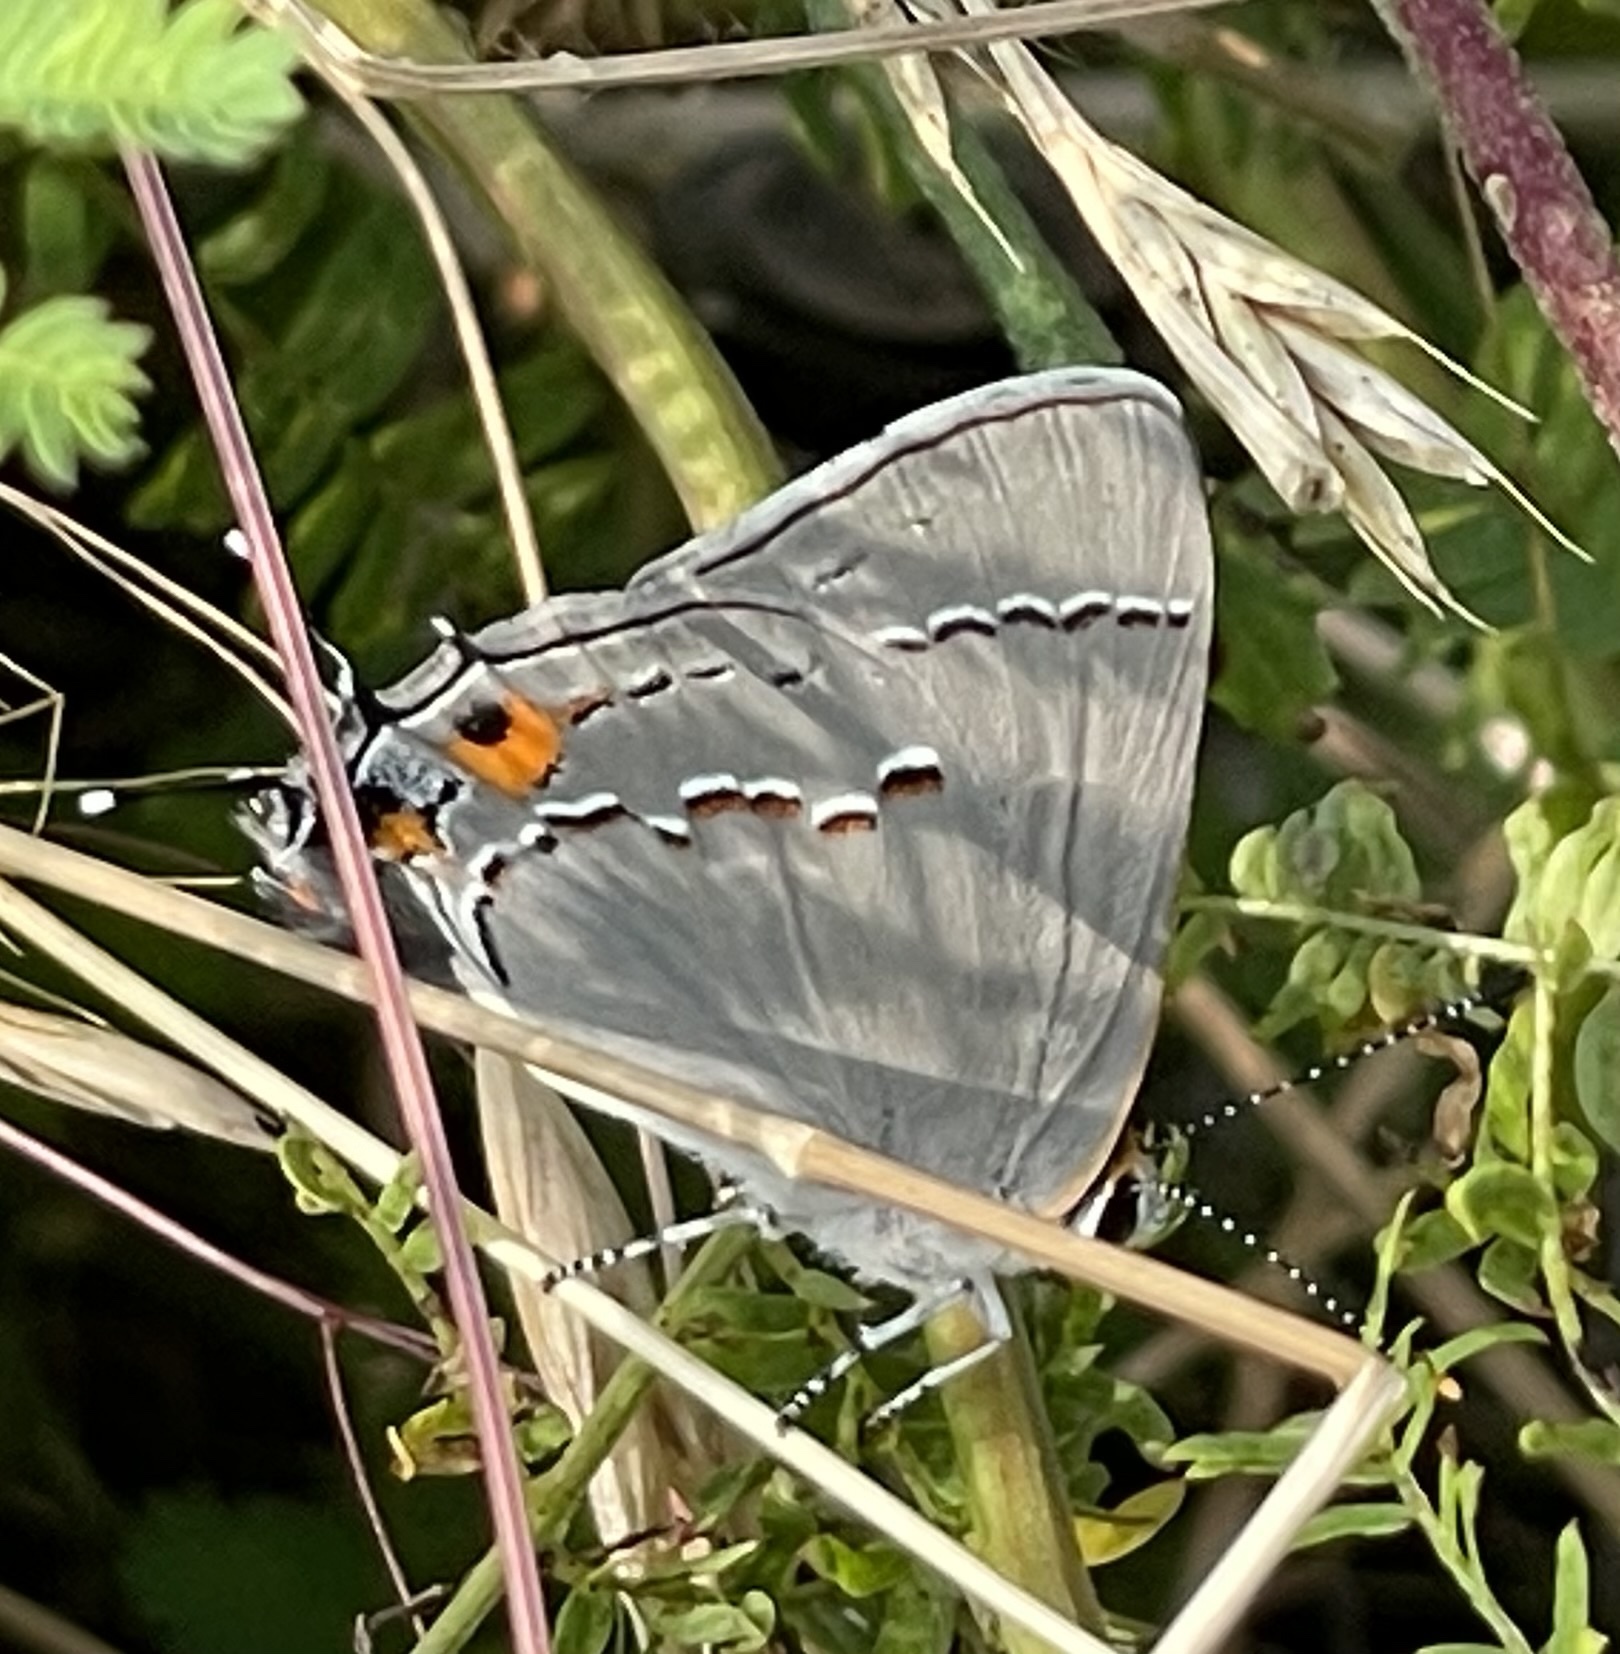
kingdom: Animalia
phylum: Arthropoda
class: Insecta
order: Lepidoptera
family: Lycaenidae
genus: Strymon
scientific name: Strymon melinus
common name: Gray hairstreak
